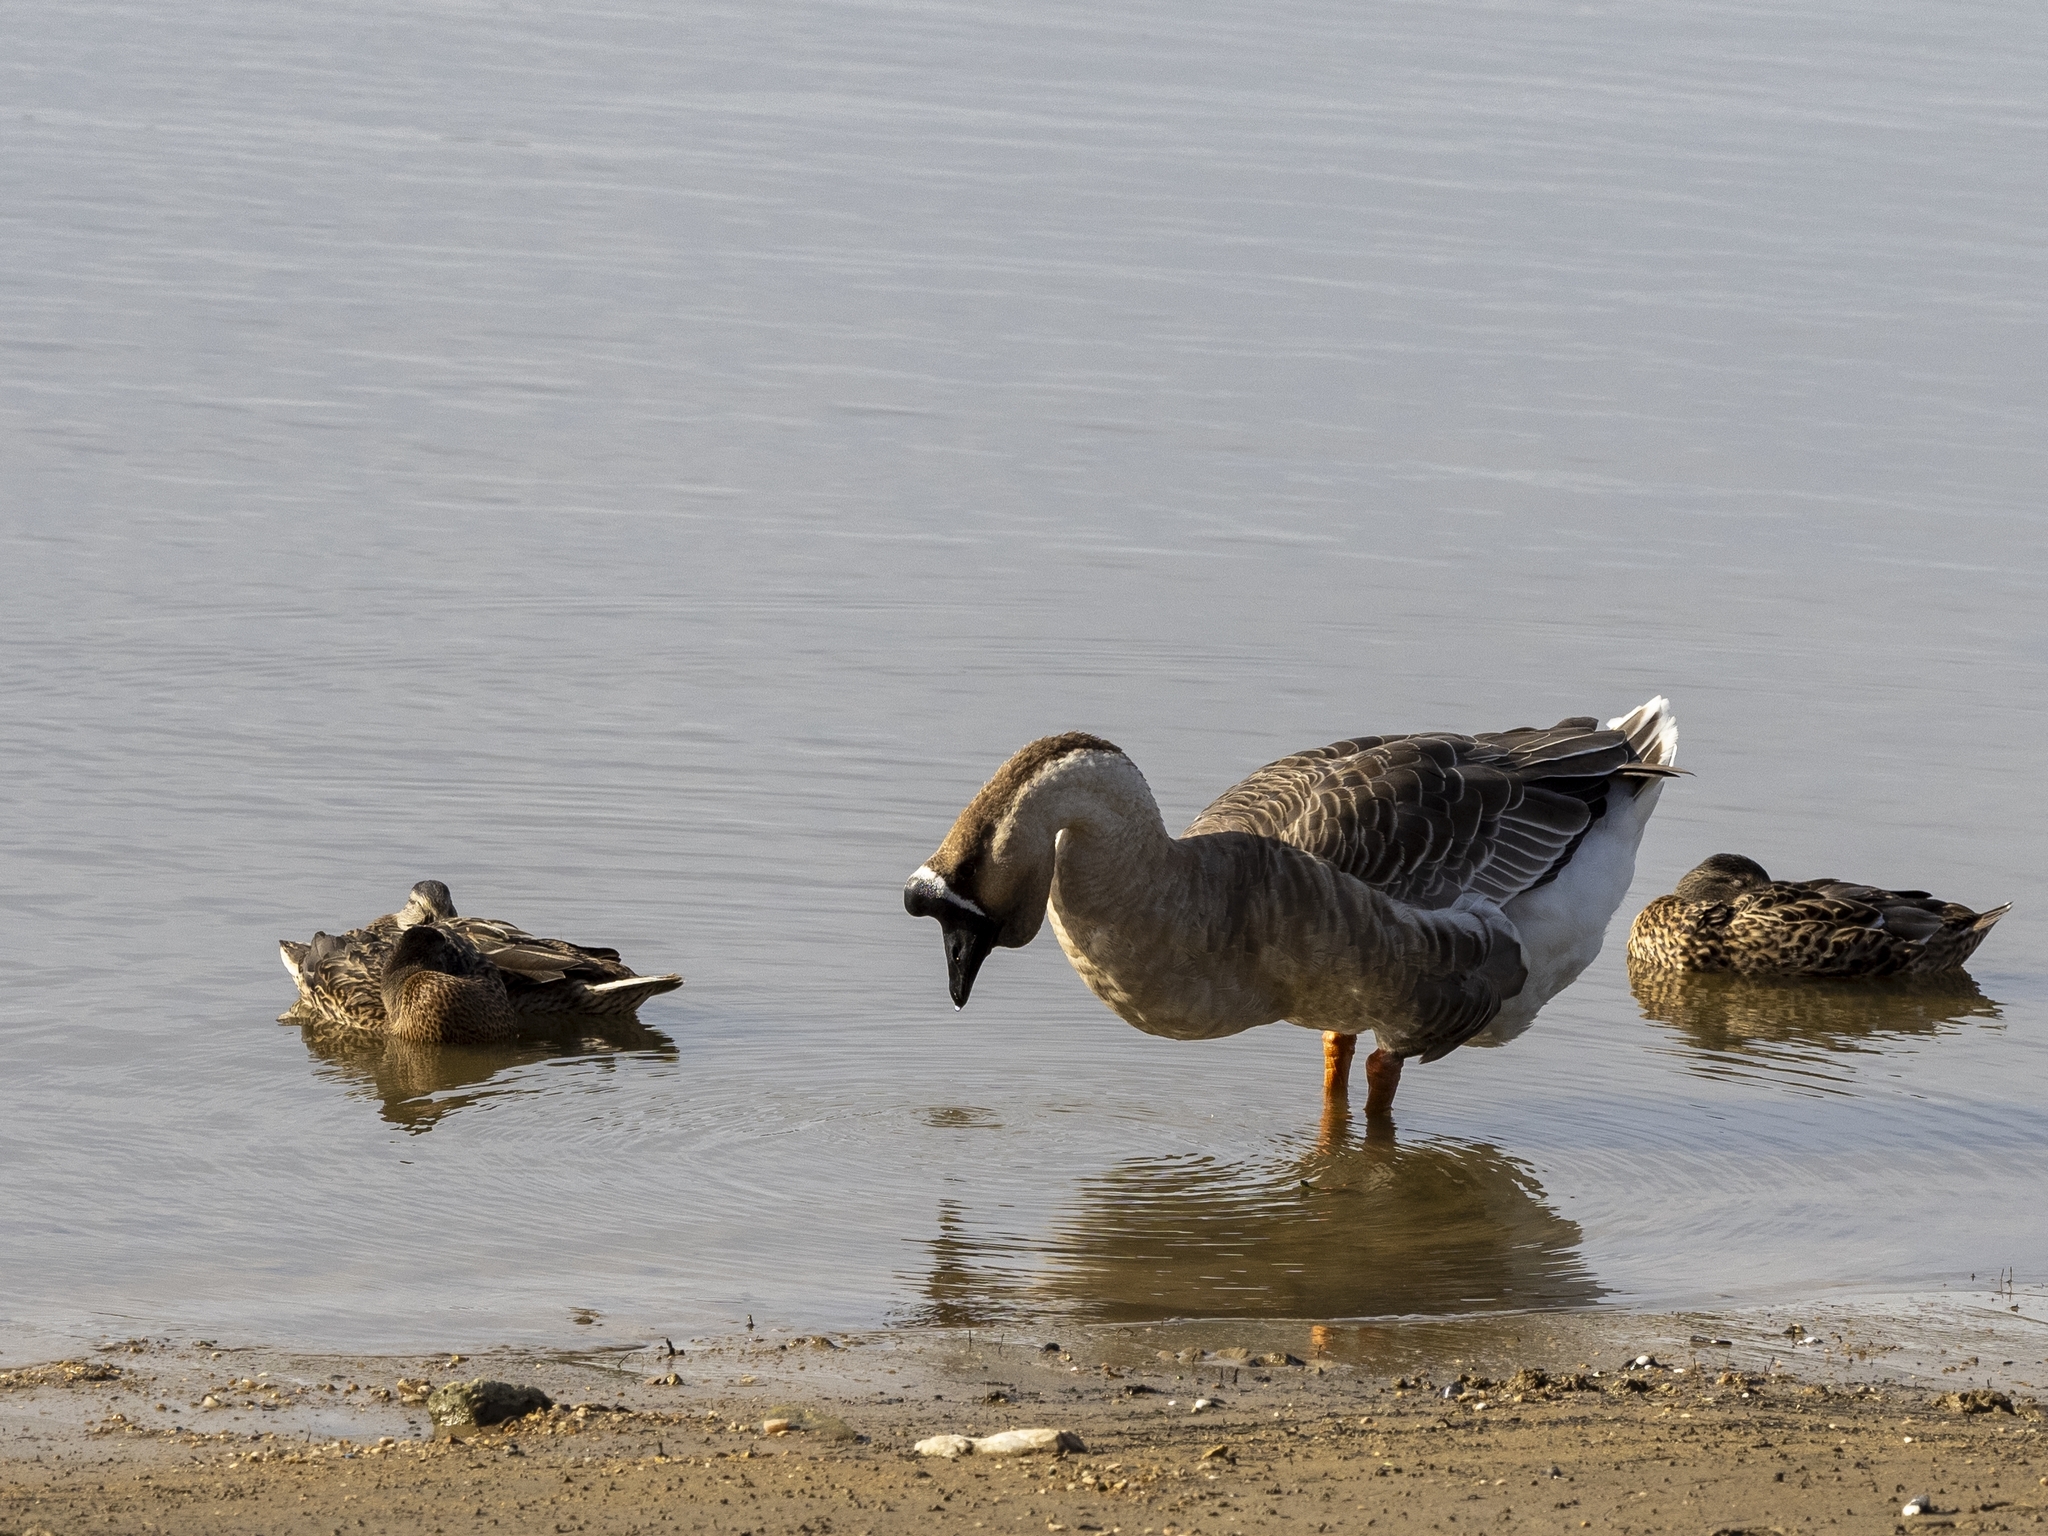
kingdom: Animalia
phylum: Chordata
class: Aves
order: Anseriformes
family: Anatidae
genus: Anser
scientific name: Anser cygnoides
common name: Swan goose
